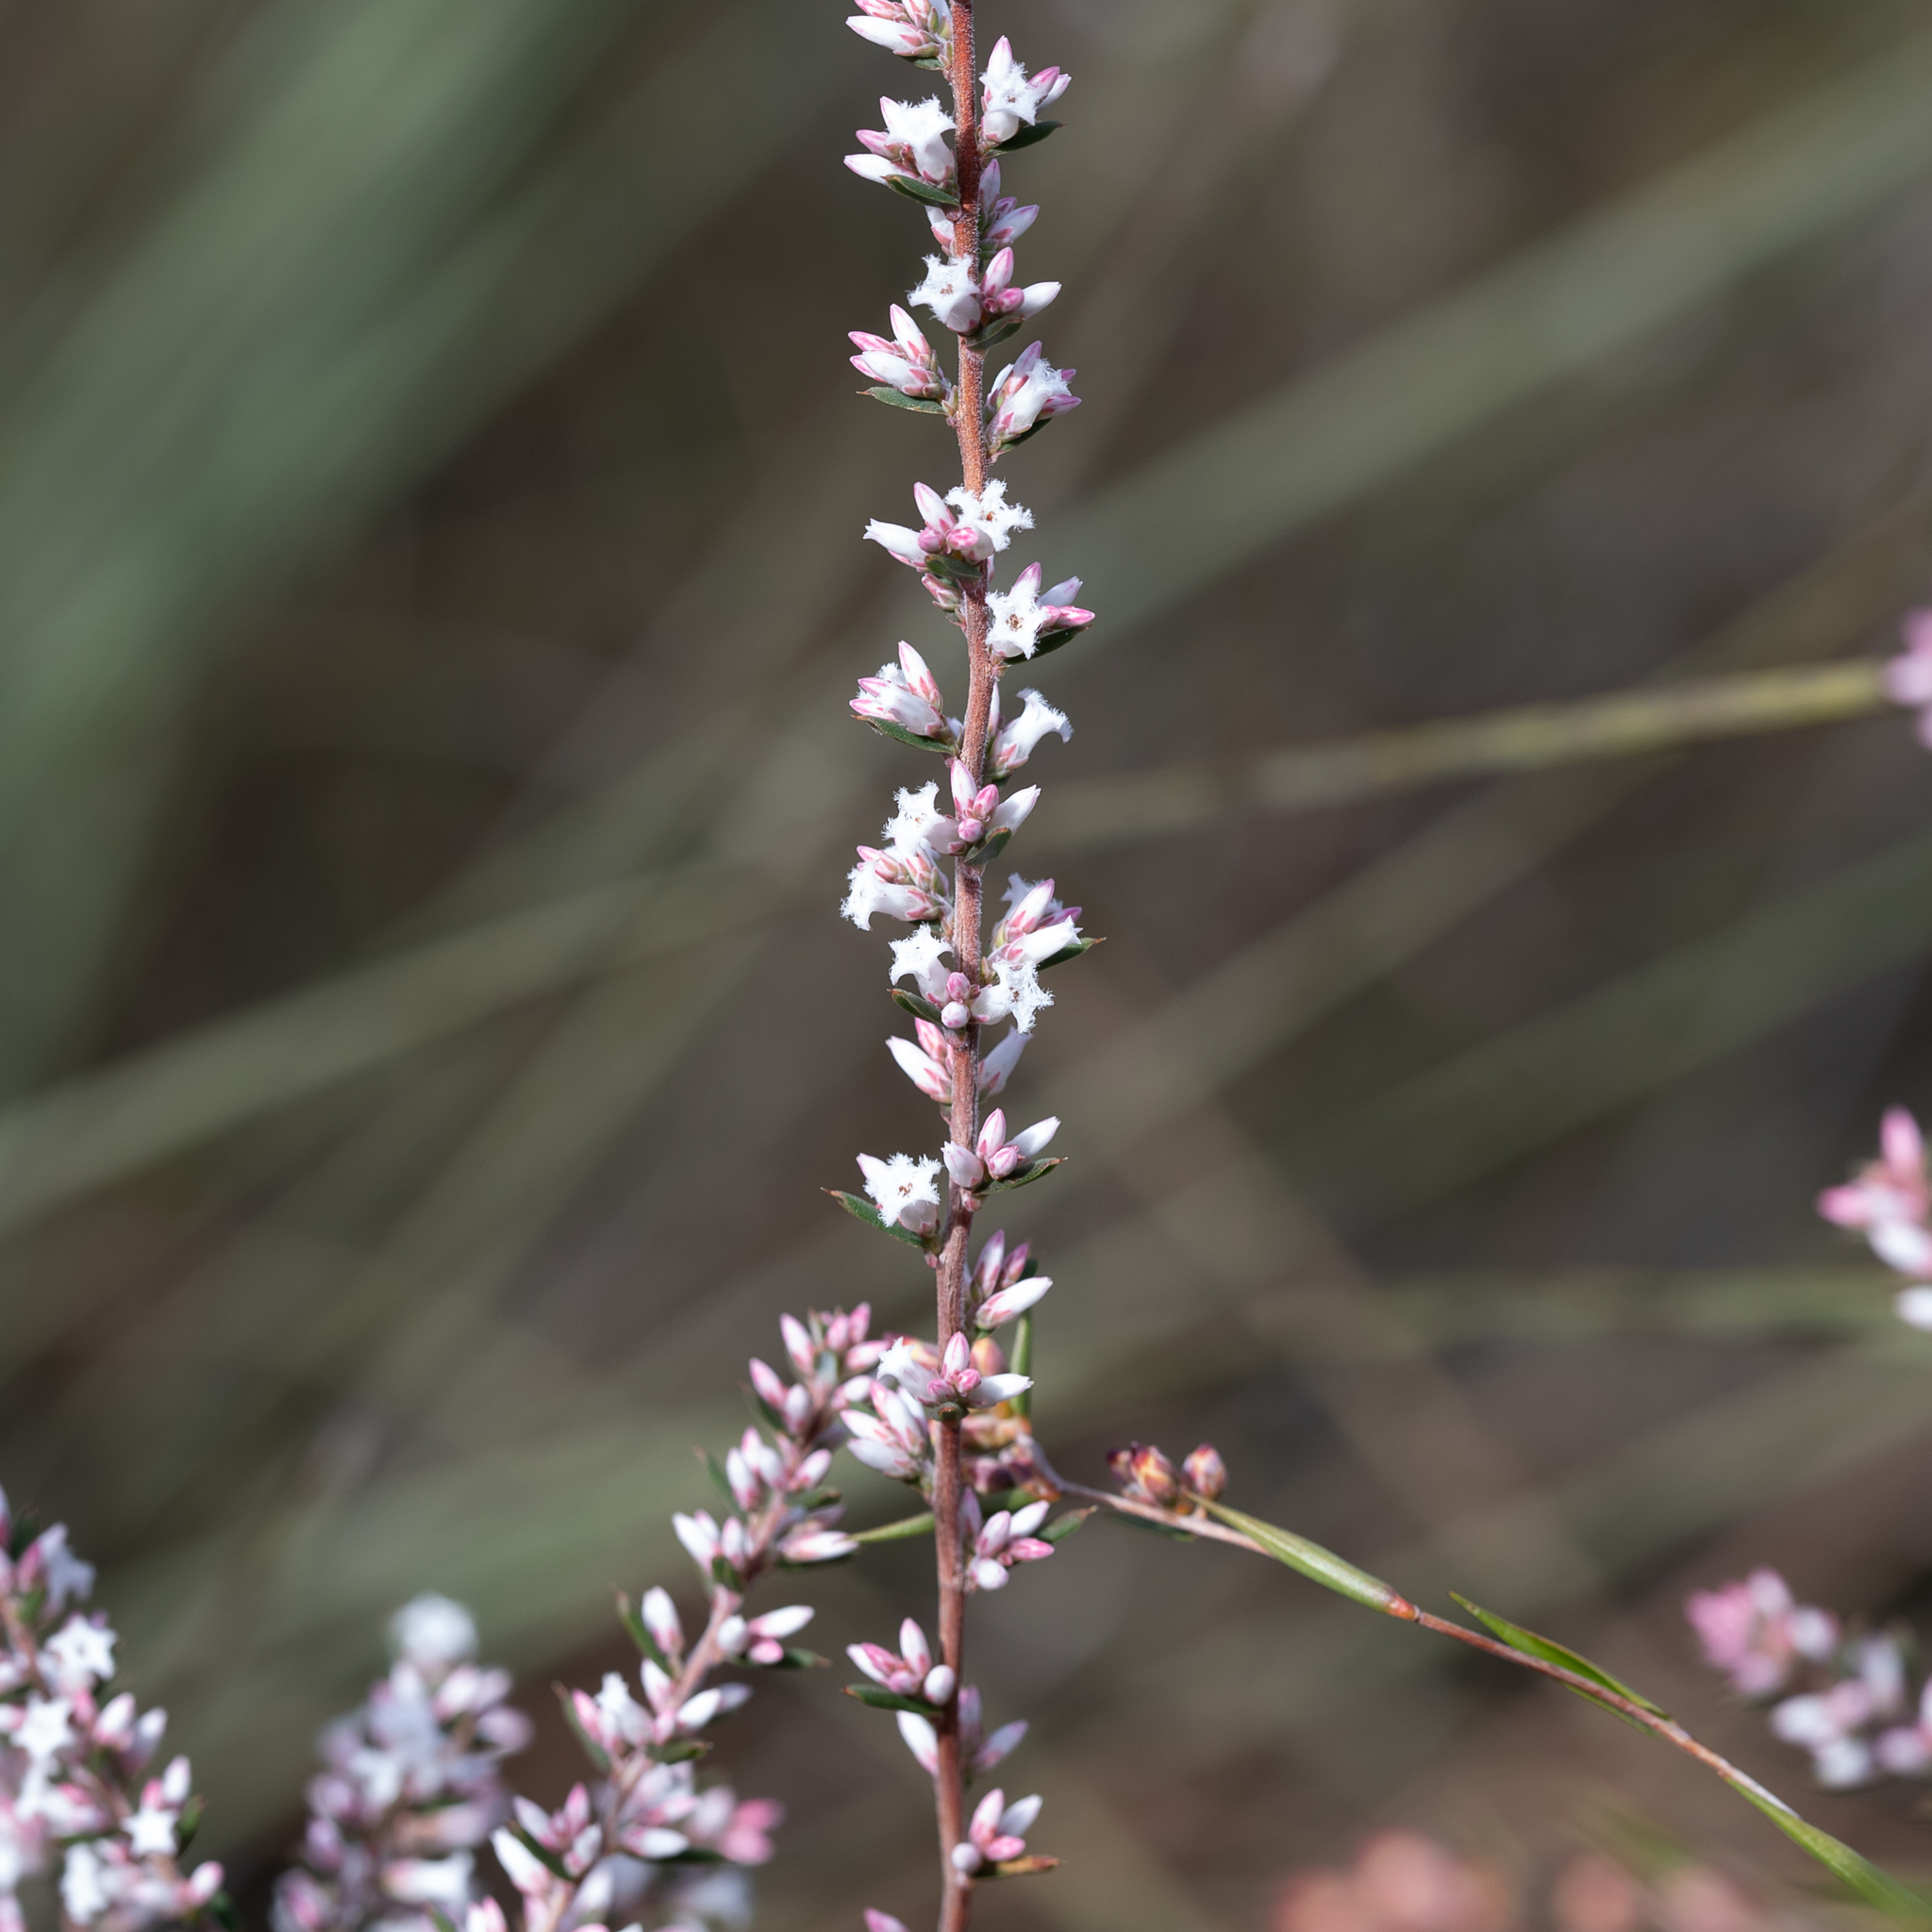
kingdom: Plantae
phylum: Tracheophyta
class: Magnoliopsida
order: Ericales
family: Ericaceae
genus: Styphelia
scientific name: Styphelia ericoides
